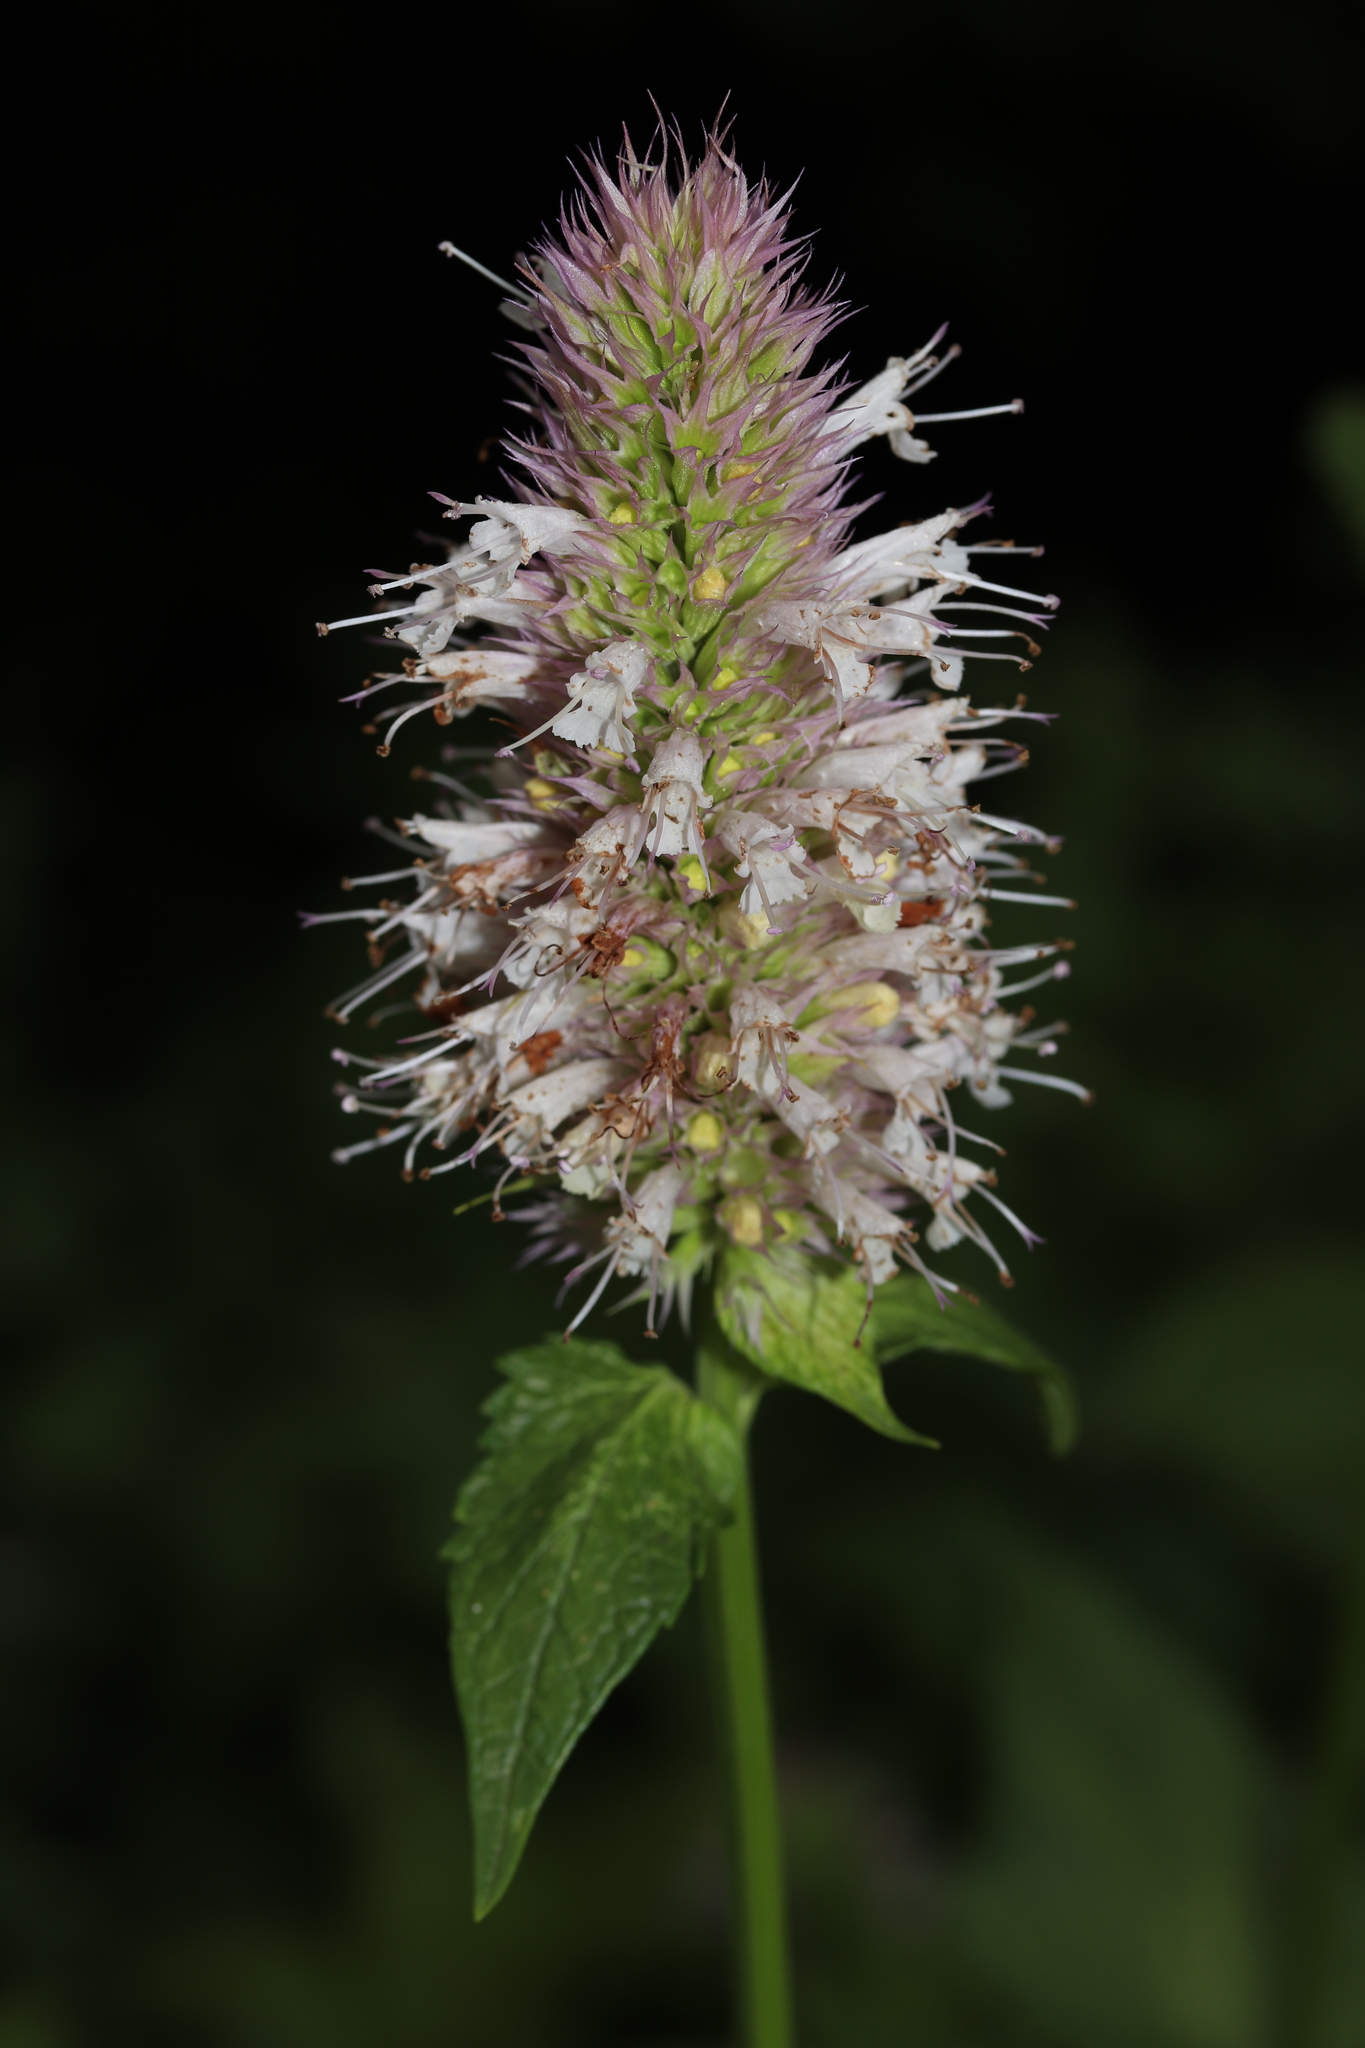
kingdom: Plantae
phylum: Tracheophyta
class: Magnoliopsida
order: Lamiales
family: Lamiaceae
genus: Agastache
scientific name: Agastache urticifolia
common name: Horsemint giant hyssop
